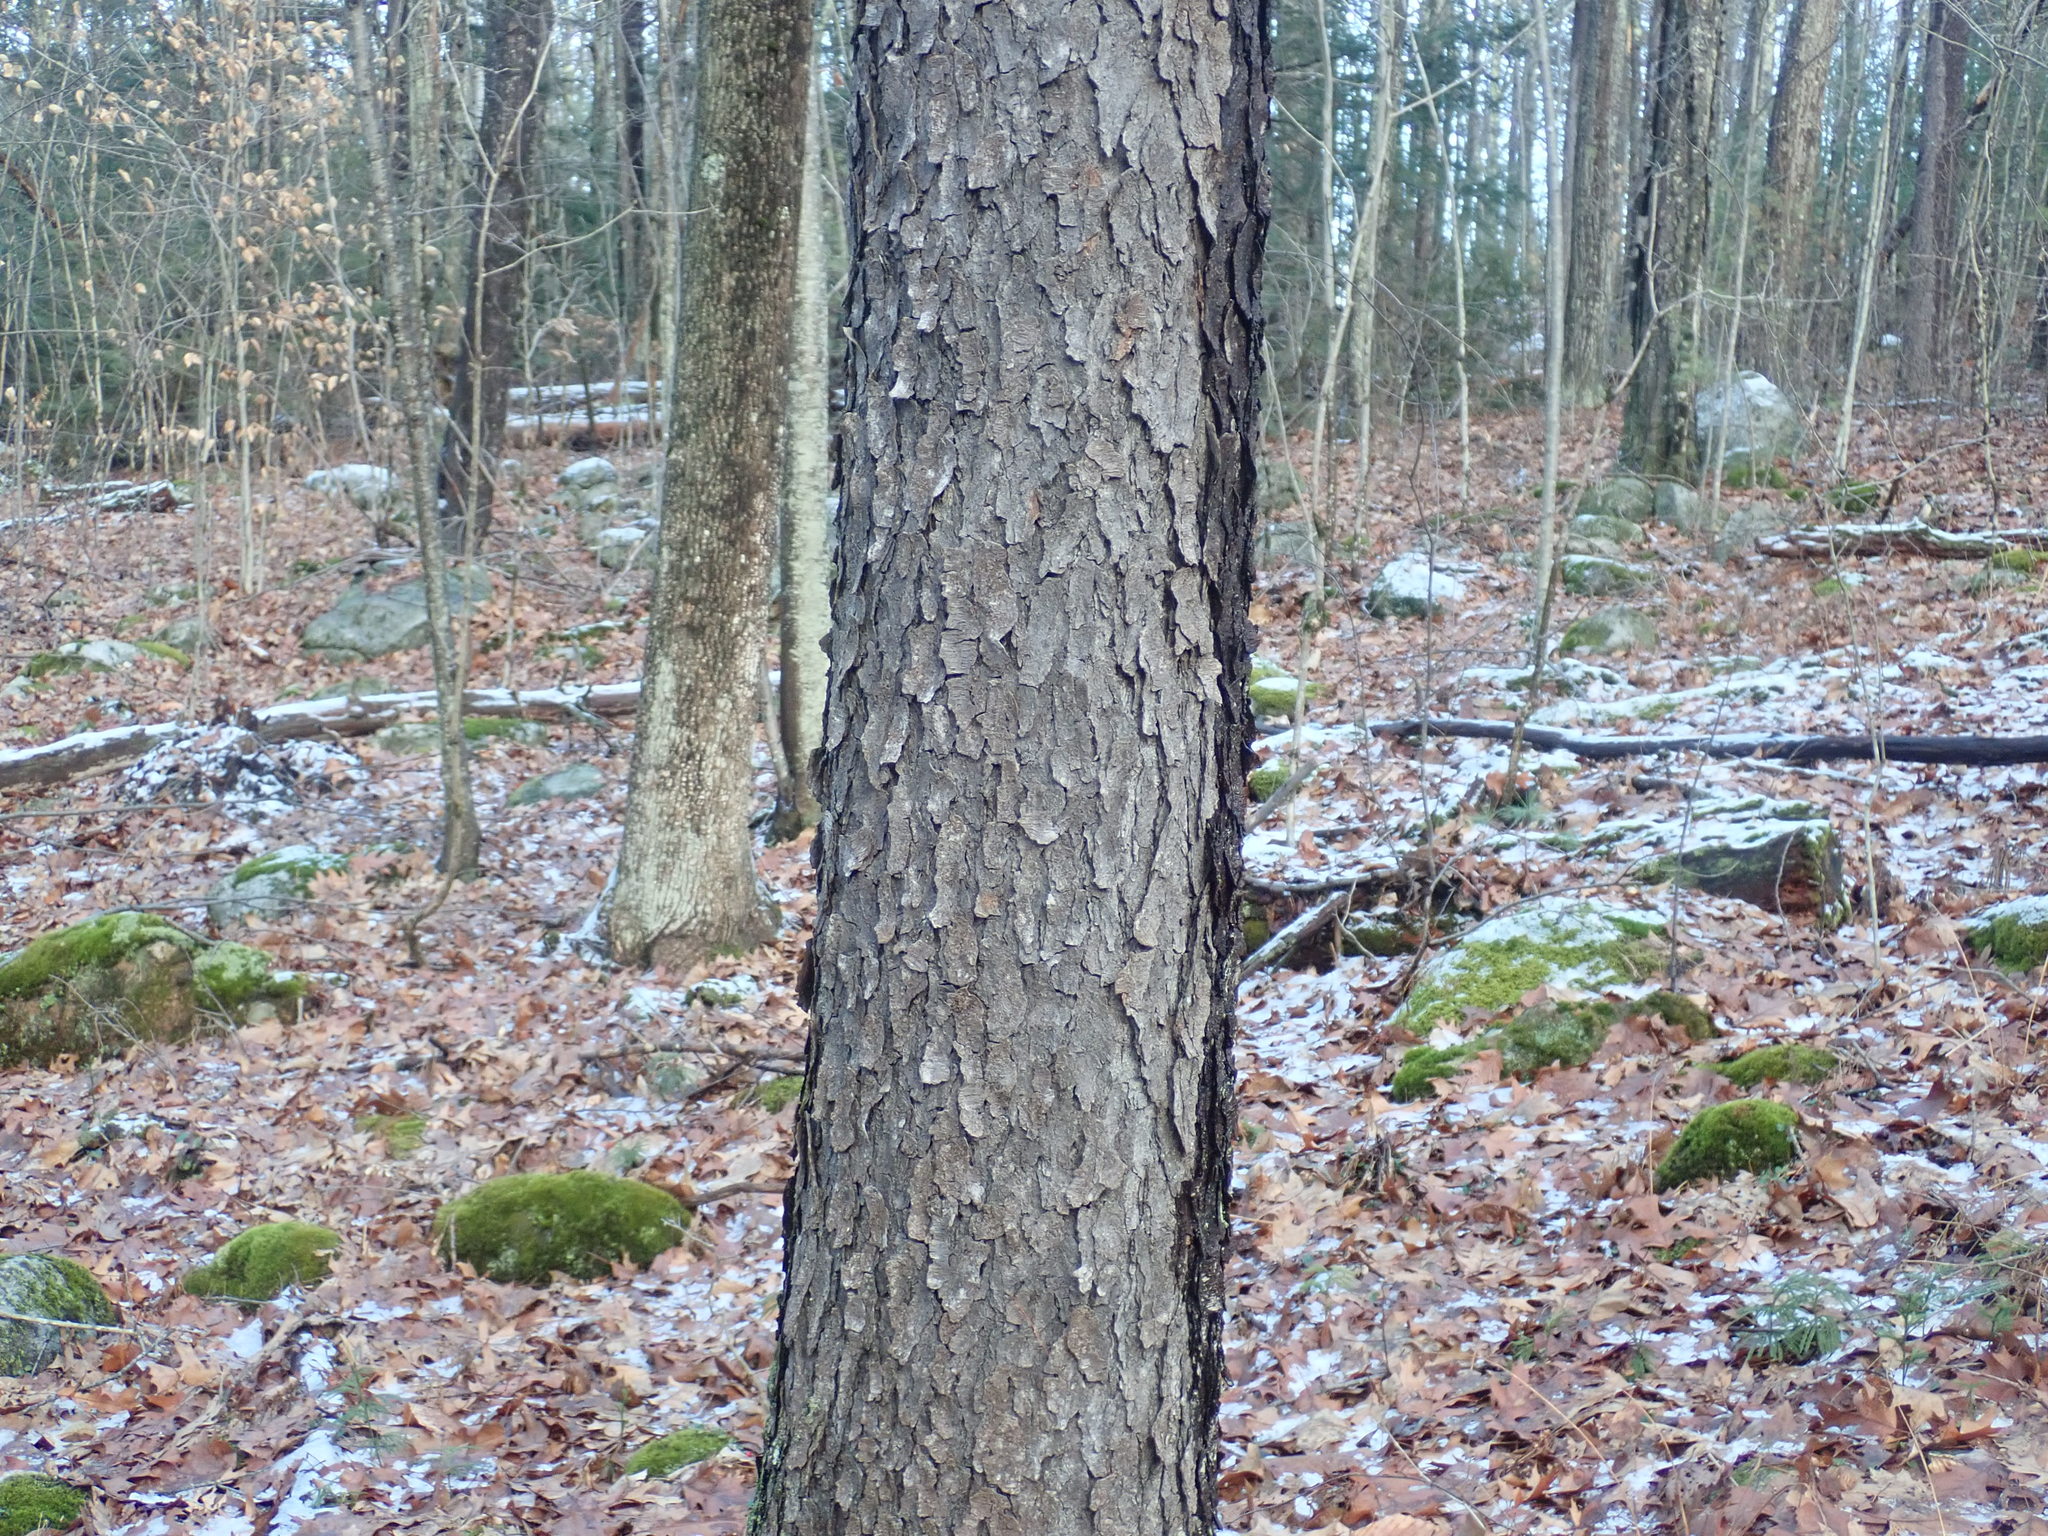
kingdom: Plantae
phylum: Tracheophyta
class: Magnoliopsida
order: Rosales
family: Rosaceae
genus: Prunus
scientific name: Prunus serotina
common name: Black cherry
